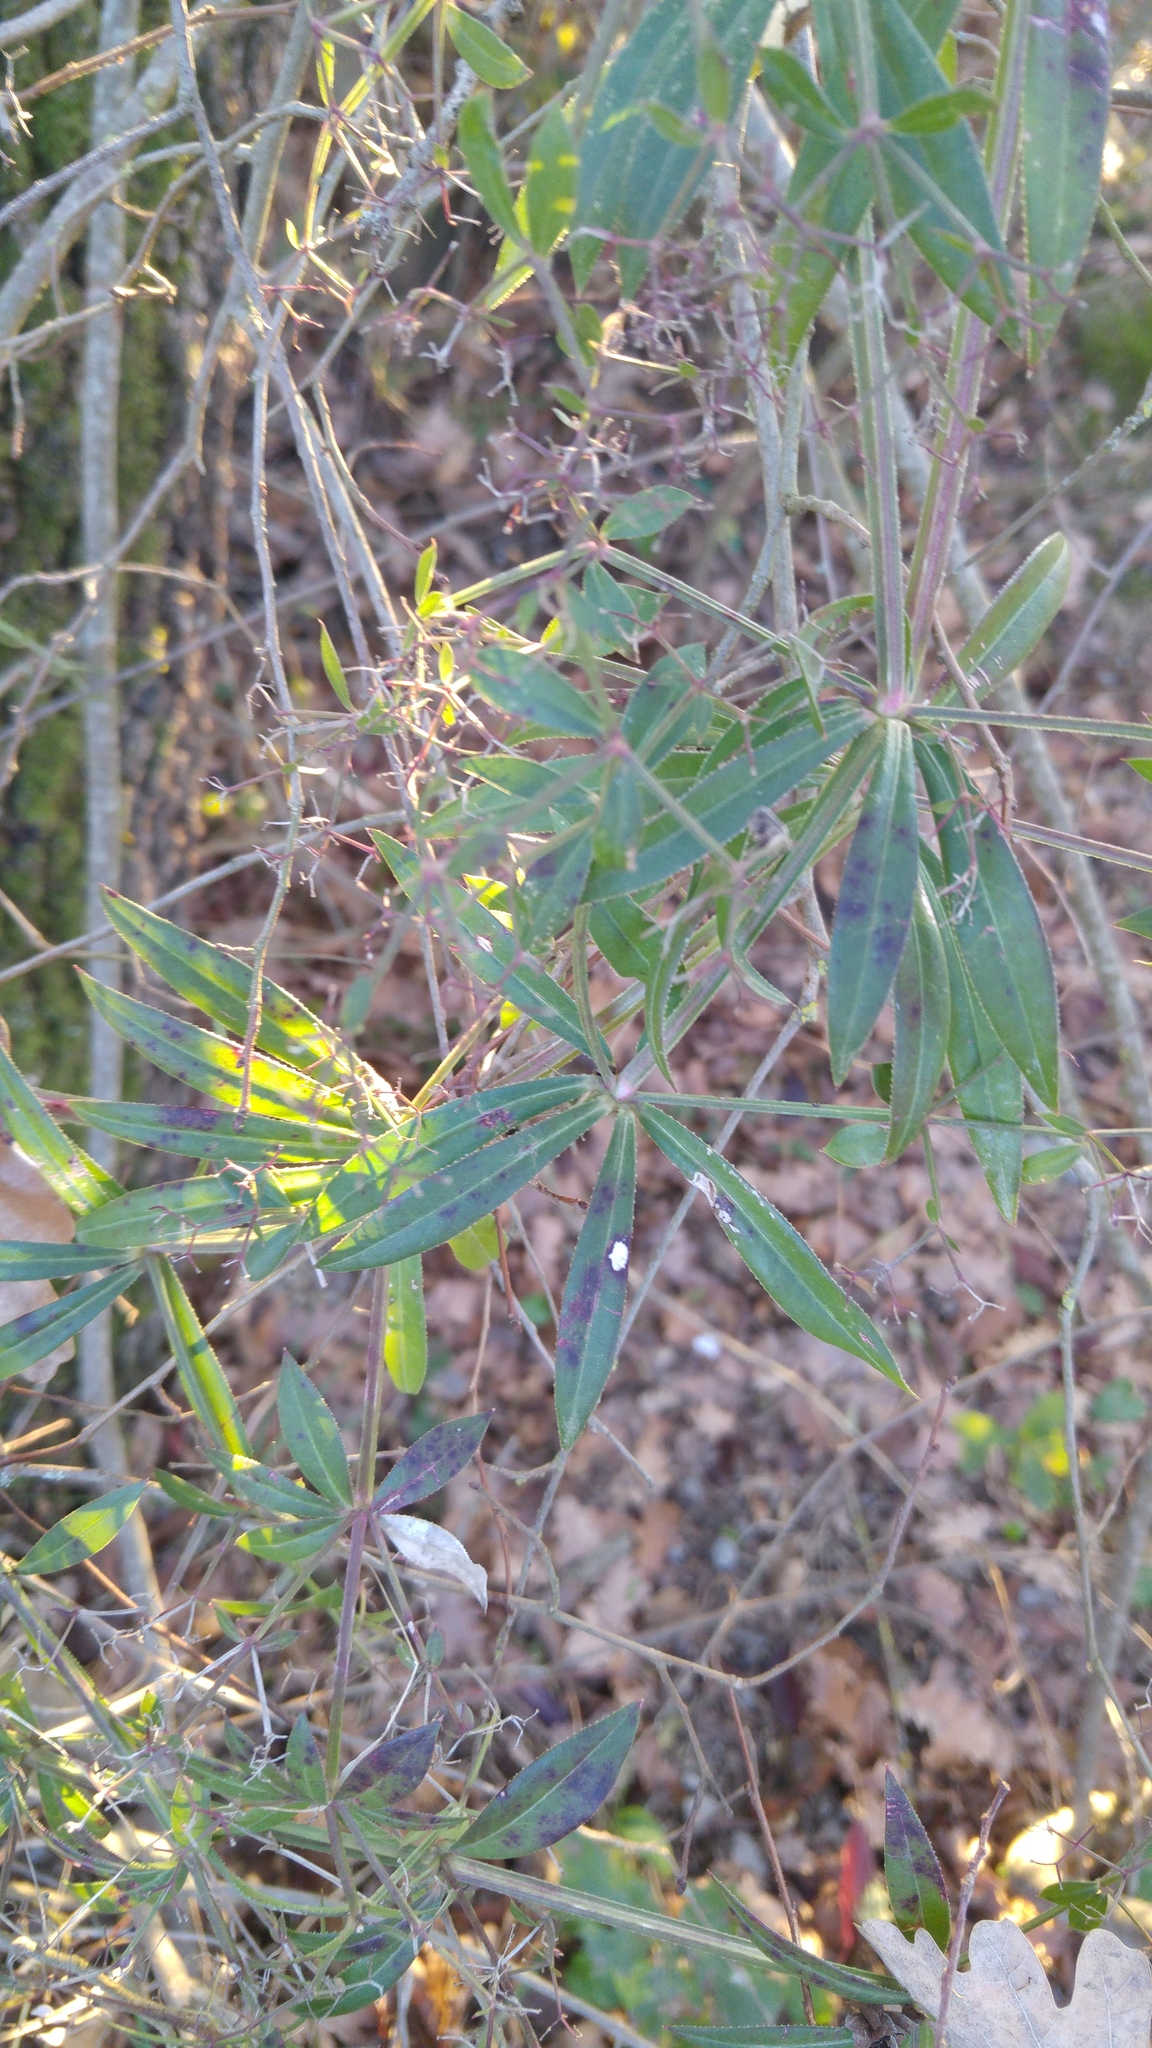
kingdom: Plantae
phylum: Tracheophyta
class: Magnoliopsida
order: Gentianales
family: Rubiaceae
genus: Rubia
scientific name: Rubia peregrina
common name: Wild madder
